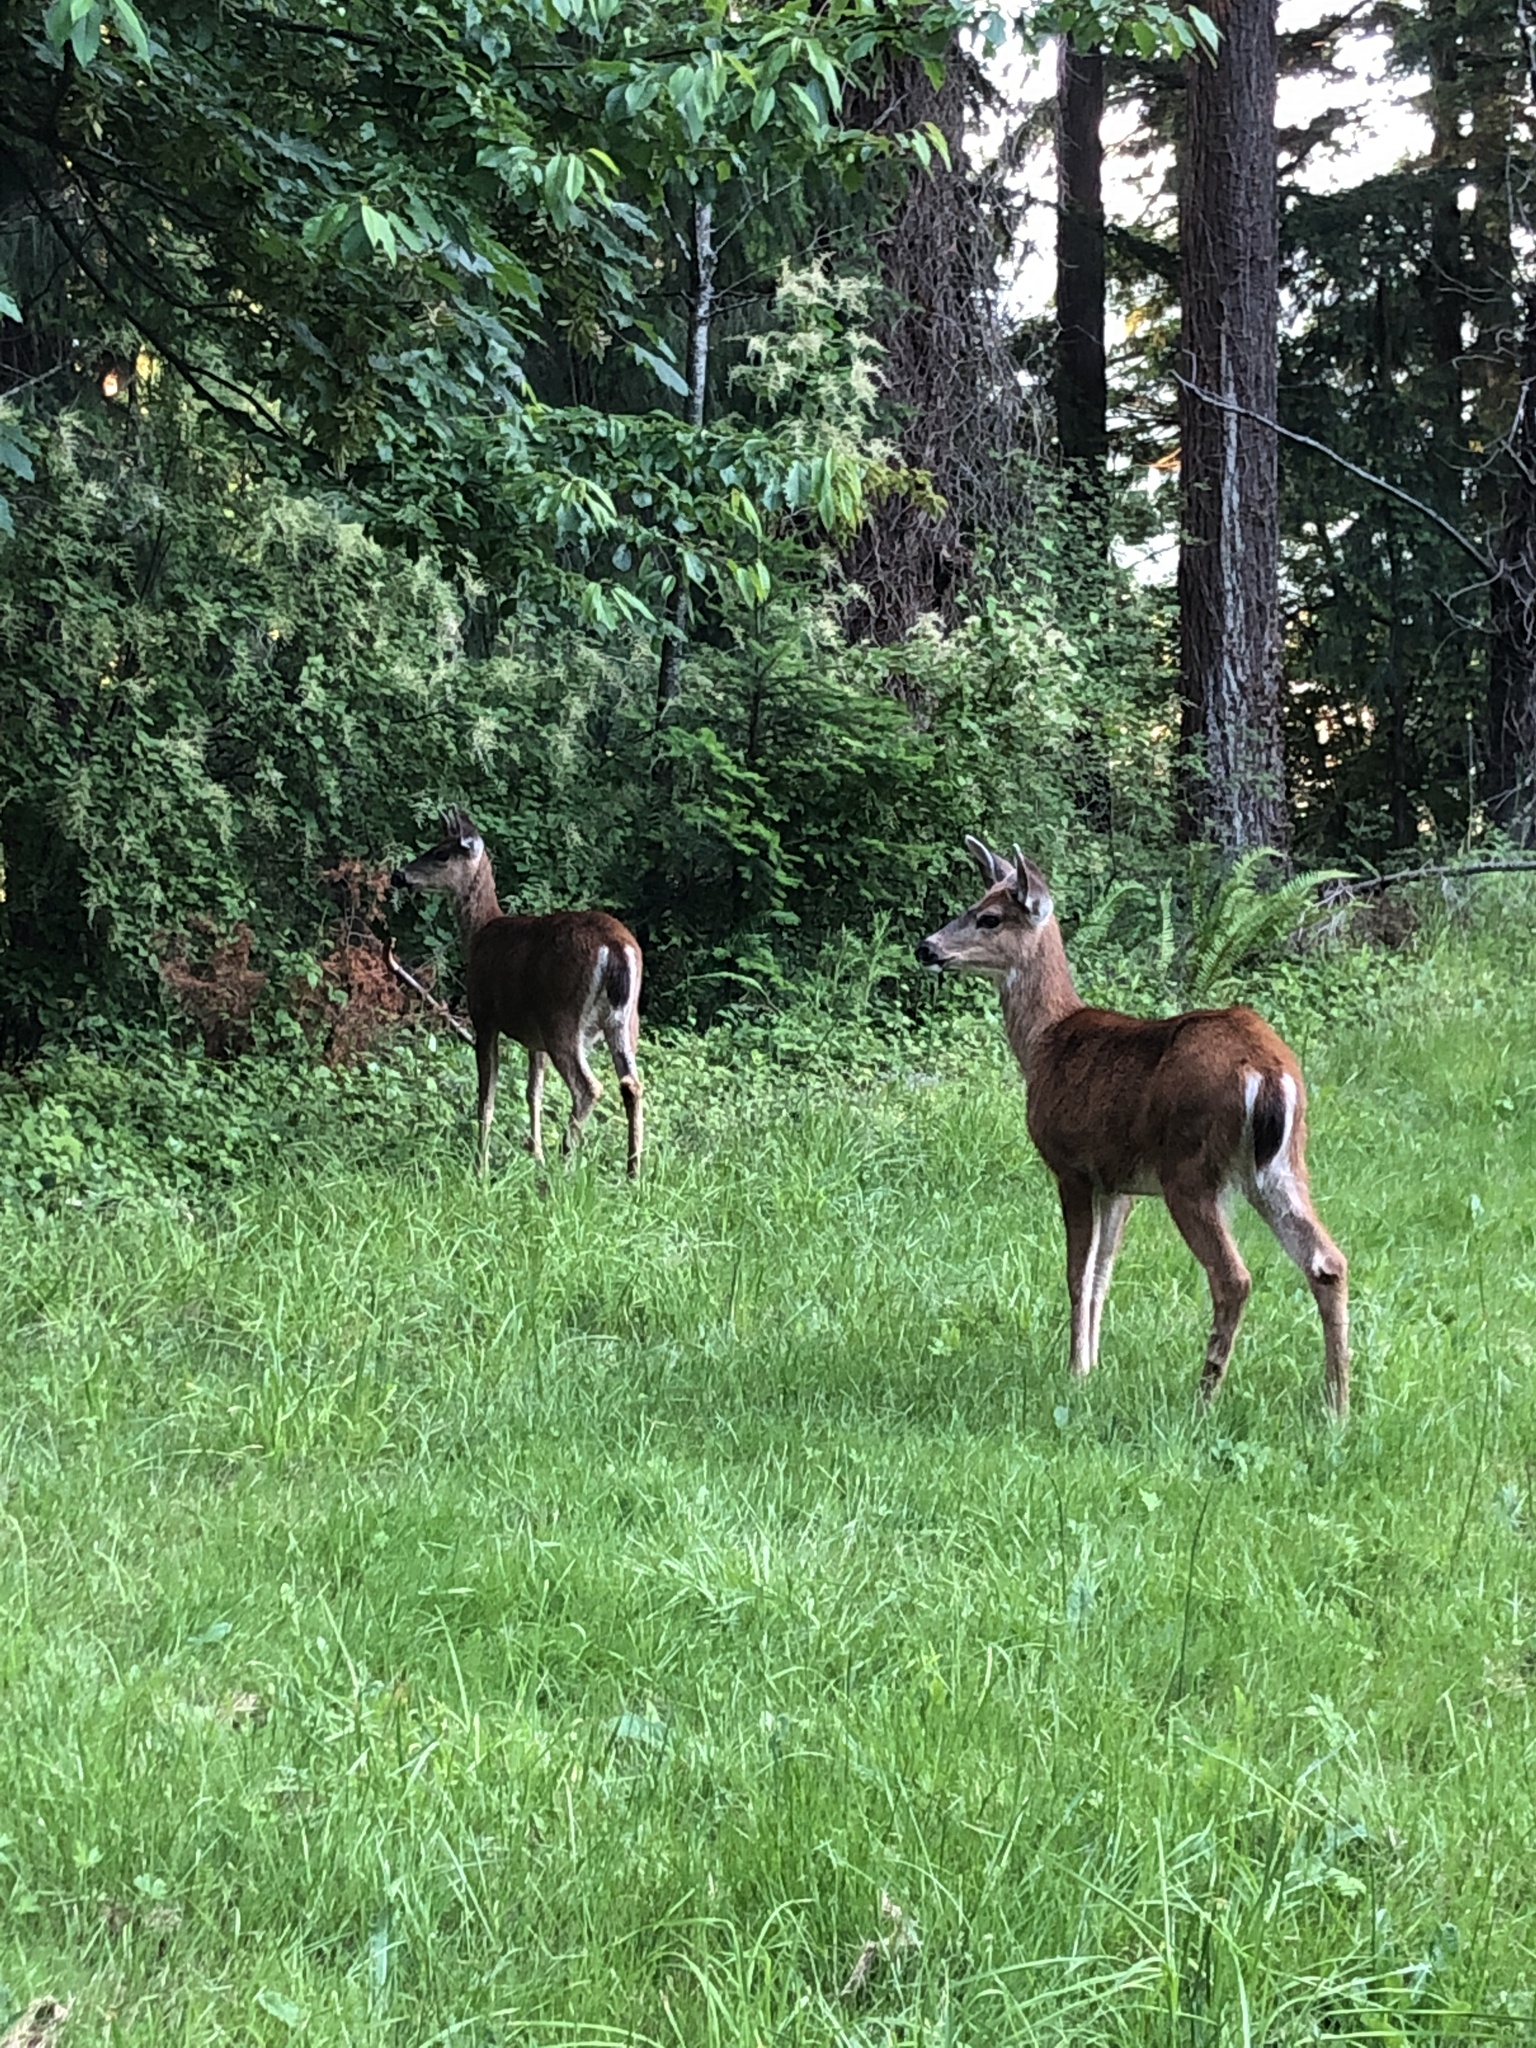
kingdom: Animalia
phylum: Chordata
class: Mammalia
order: Artiodactyla
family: Cervidae
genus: Odocoileus
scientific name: Odocoileus hemionus
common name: Mule deer
